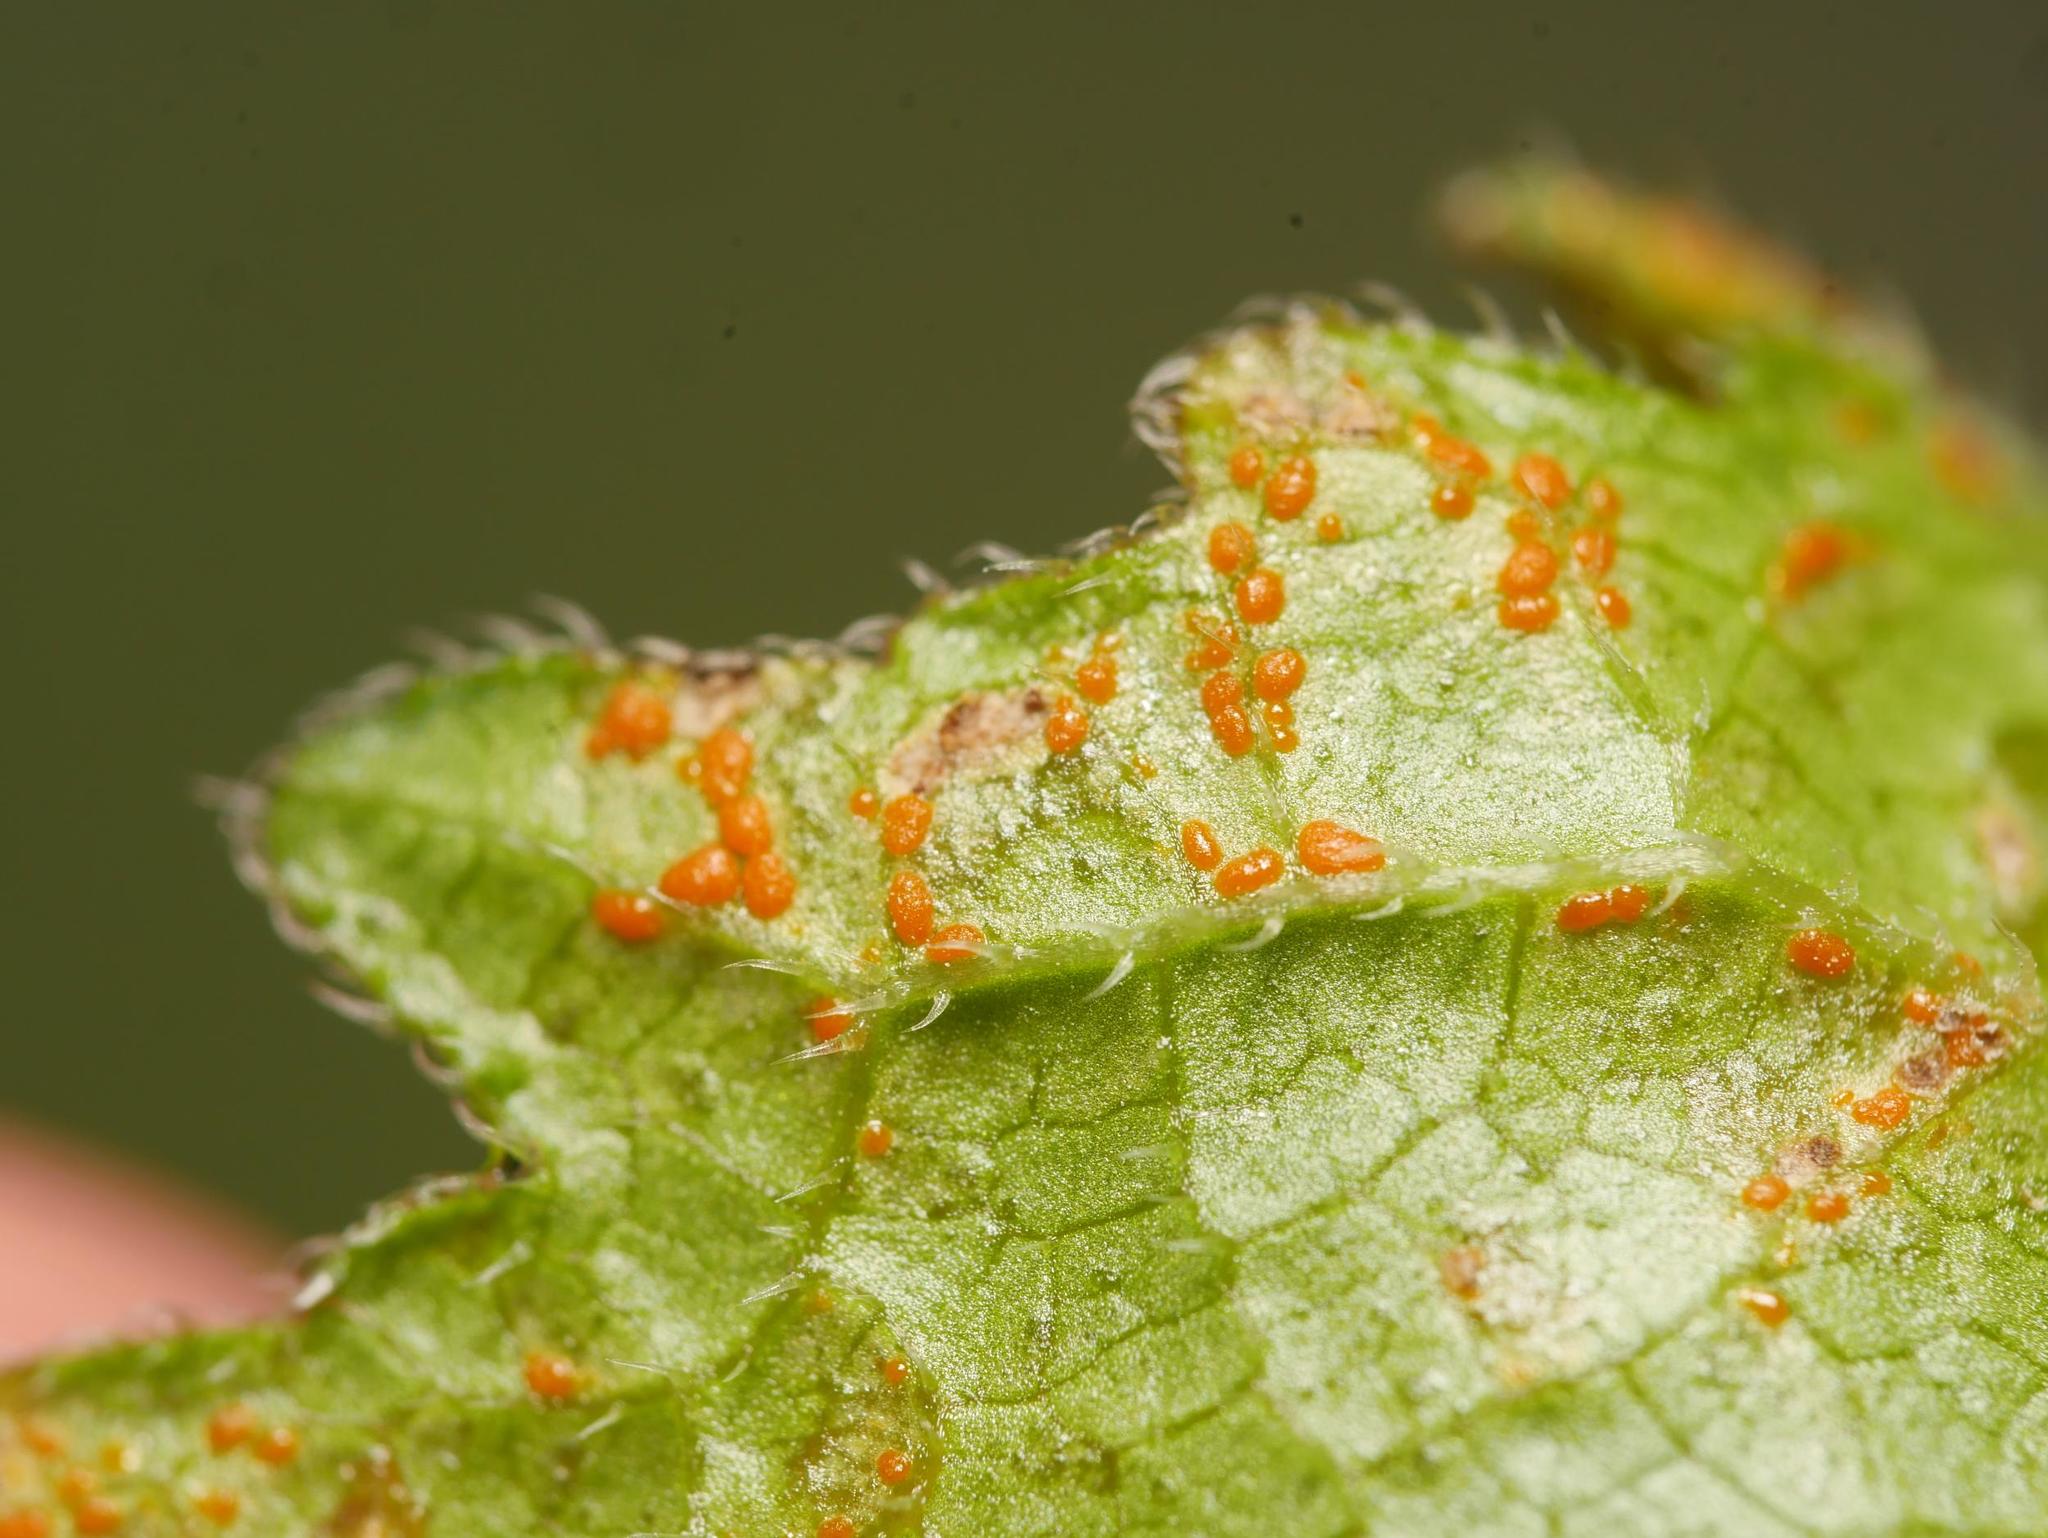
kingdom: Fungi
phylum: Basidiomycota
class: Pucciniomycetes
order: Pucciniales
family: Coleosporiaceae
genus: Coleosporium
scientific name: Coleosporium campanulae
